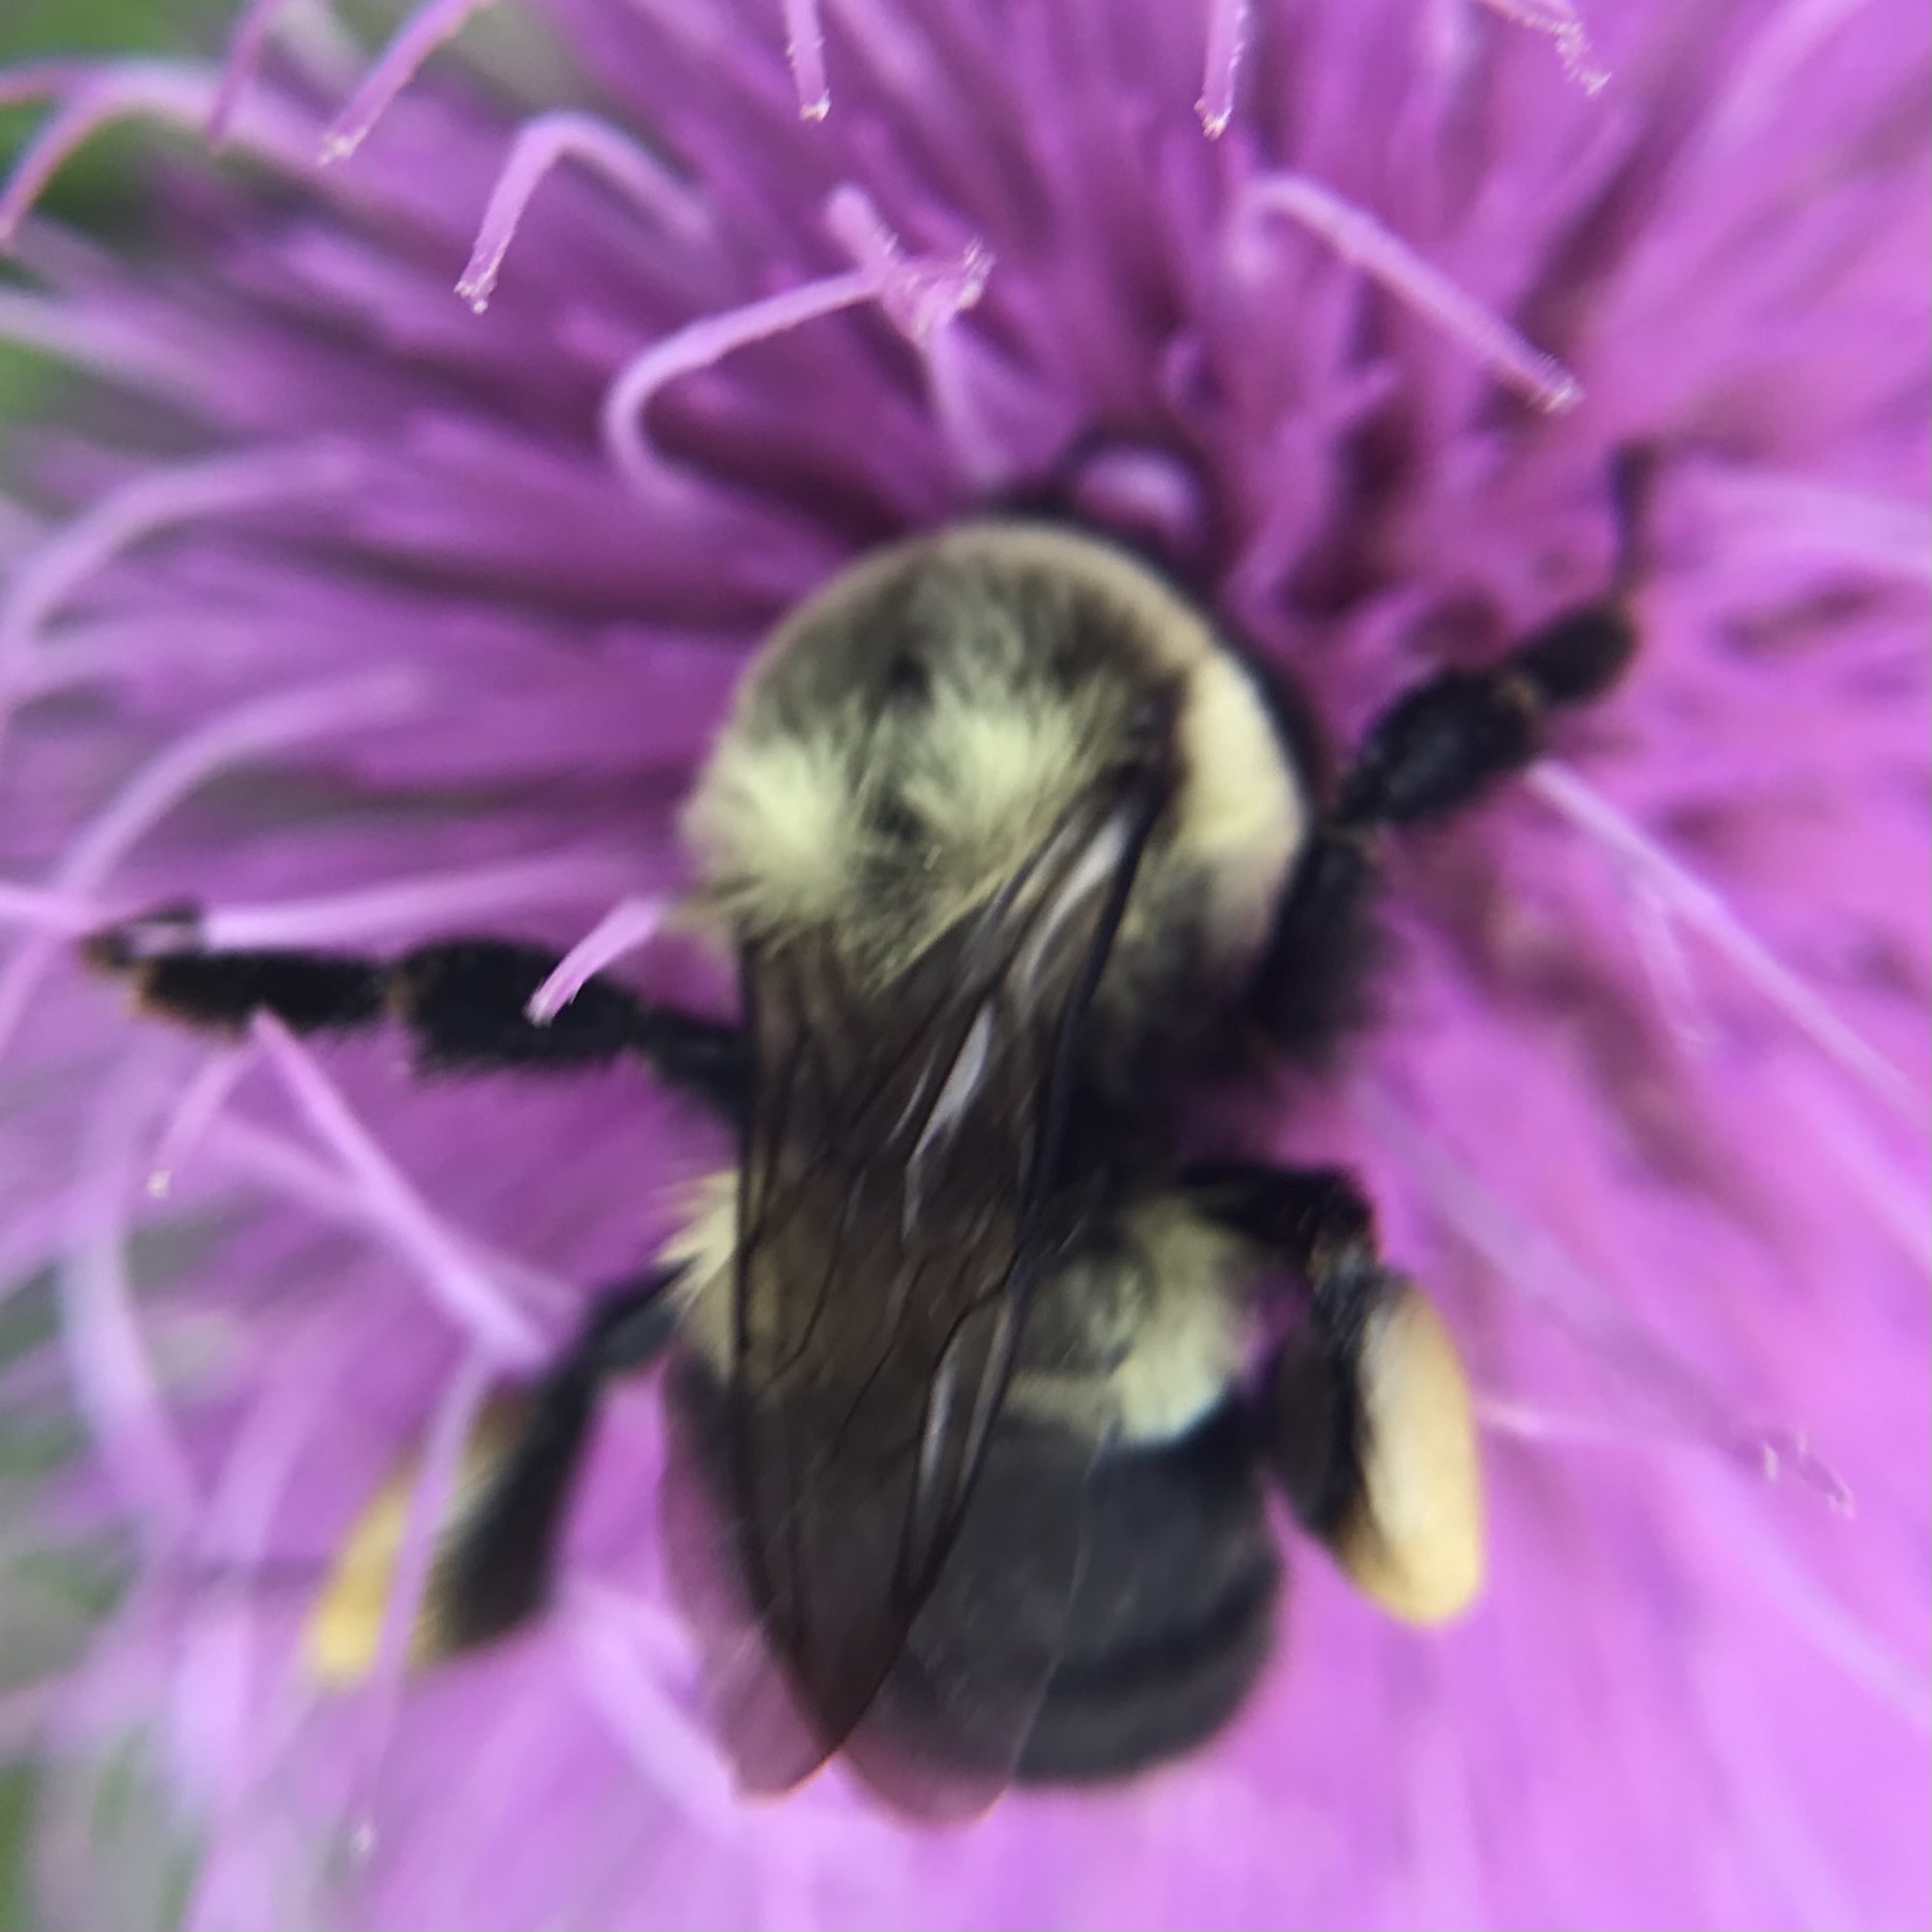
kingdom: Animalia
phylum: Arthropoda
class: Insecta
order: Hymenoptera
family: Apidae
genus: Bombus
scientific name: Bombus impatiens
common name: Common eastern bumble bee
